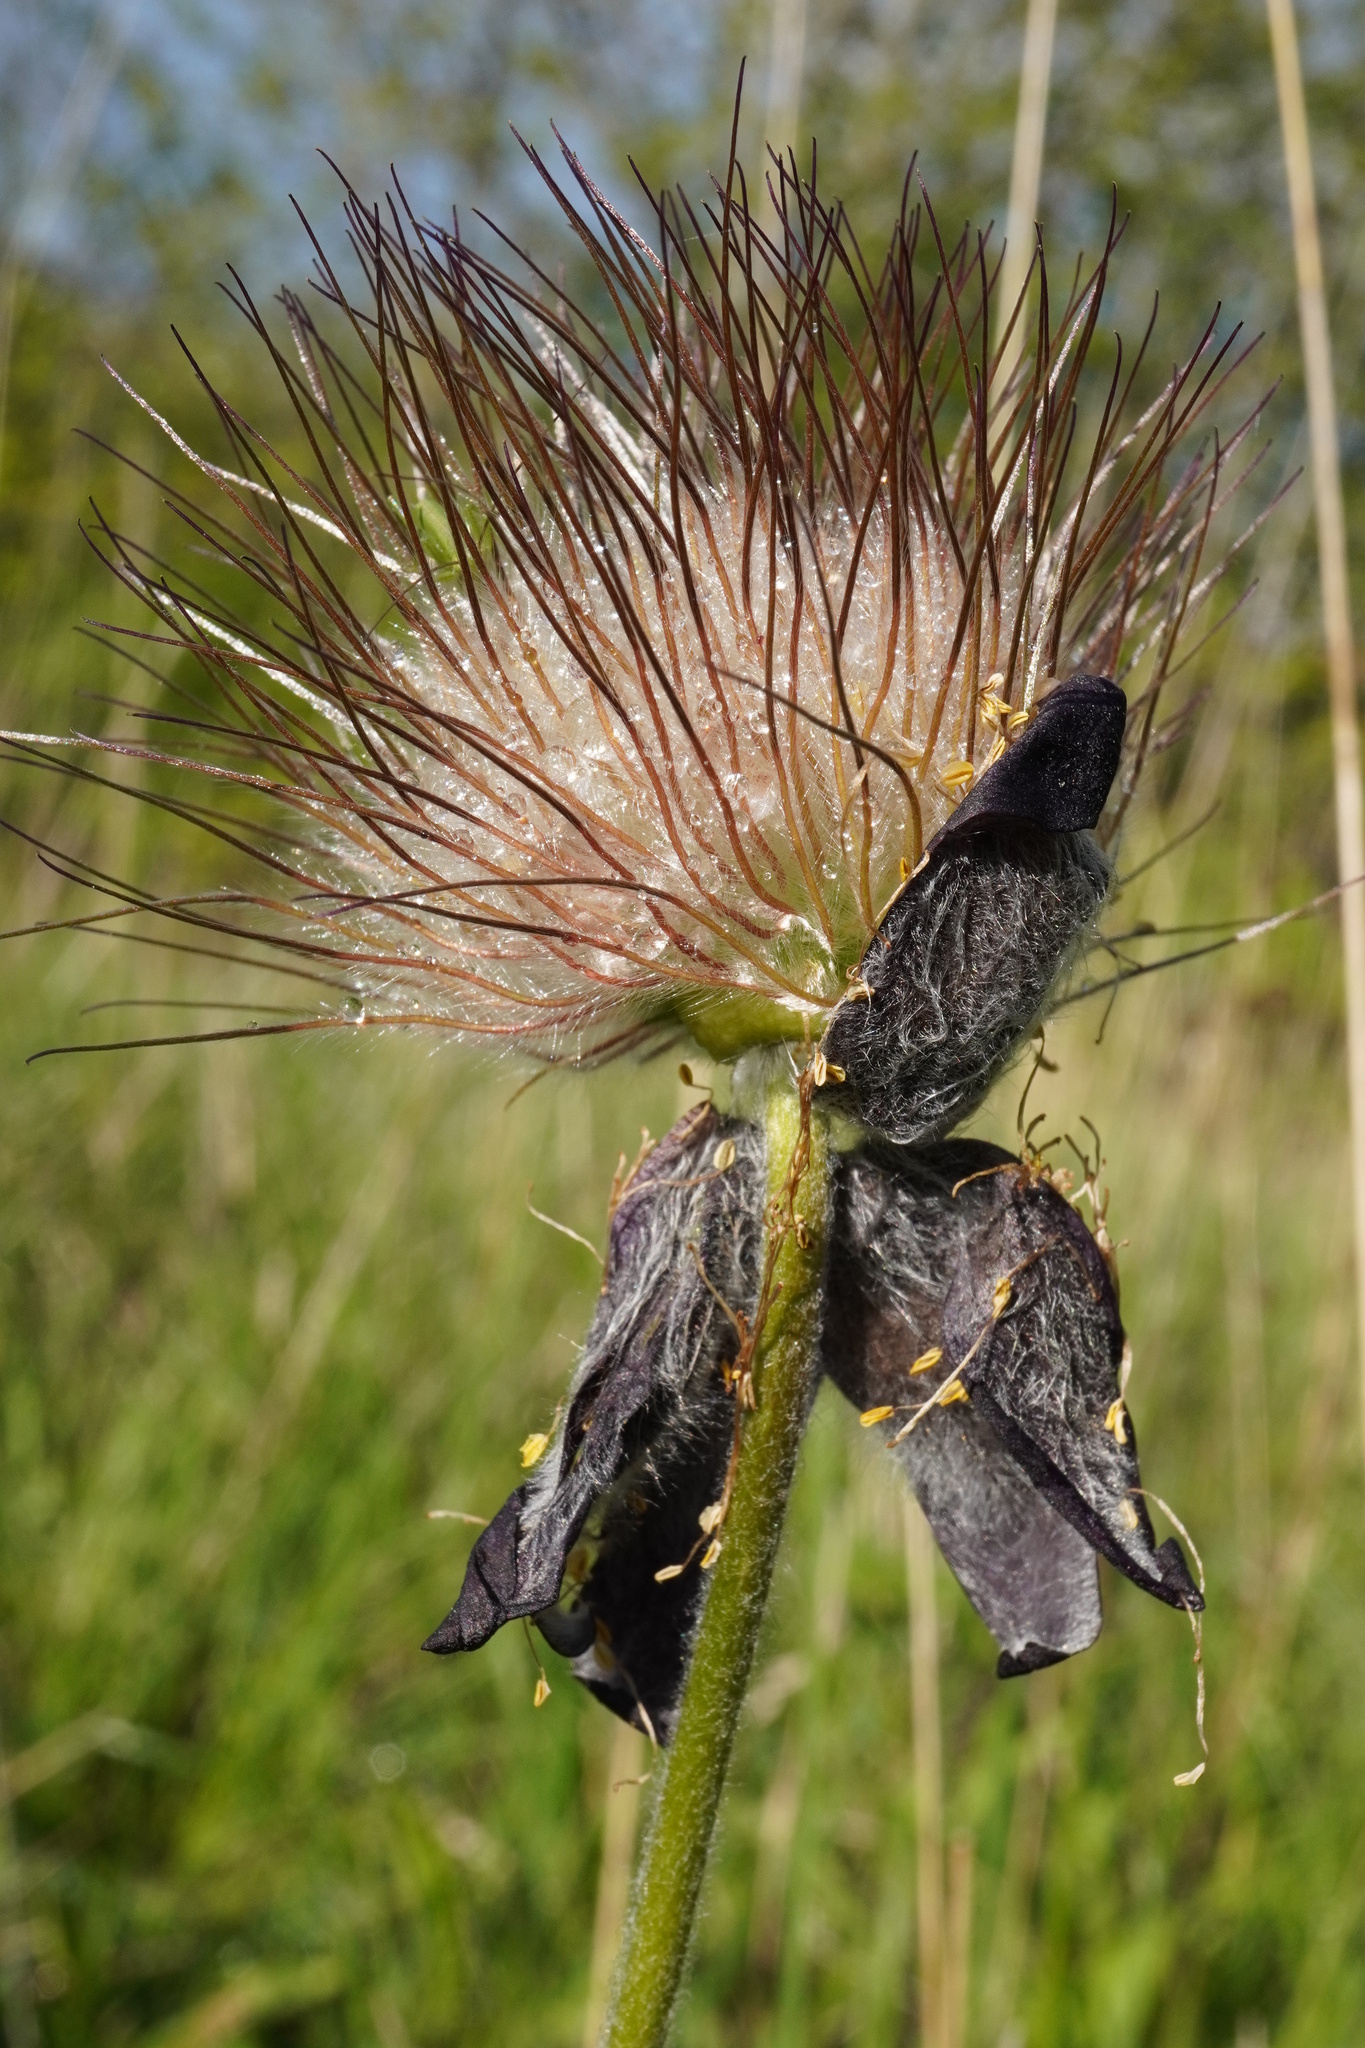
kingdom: Plantae
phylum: Tracheophyta
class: Magnoliopsida
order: Ranunculales
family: Ranunculaceae
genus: Pulsatilla
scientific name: Pulsatilla pratensis
